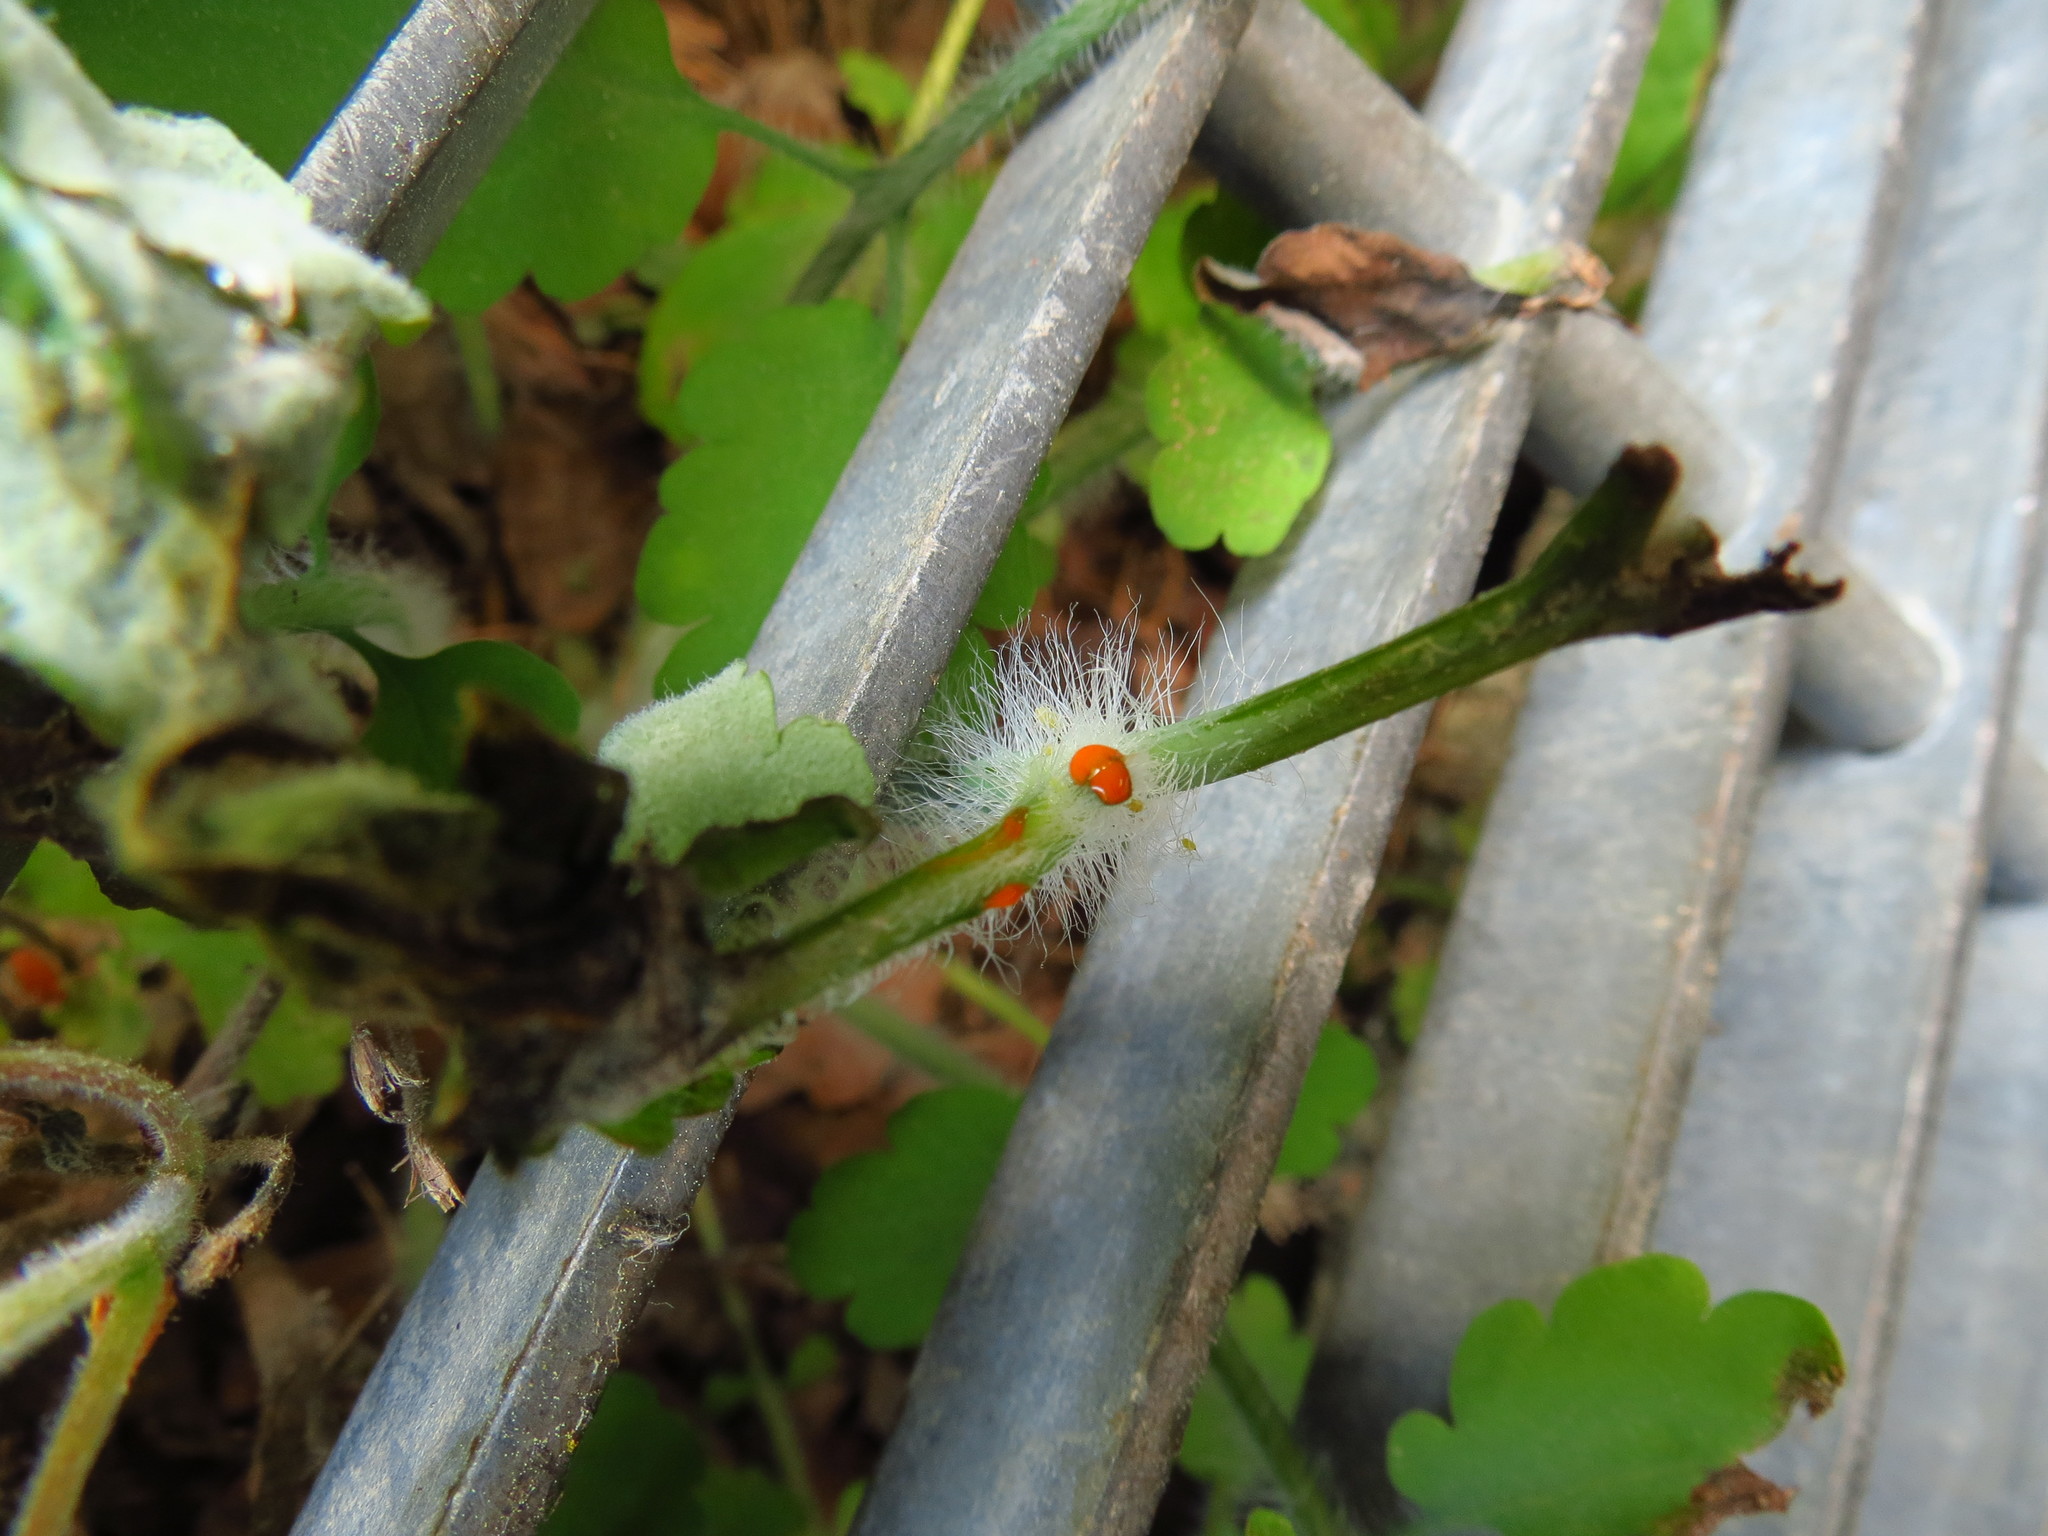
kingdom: Plantae
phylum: Tracheophyta
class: Magnoliopsida
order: Ranunculales
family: Papaveraceae
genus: Chelidonium
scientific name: Chelidonium majus
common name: Greater celandine
